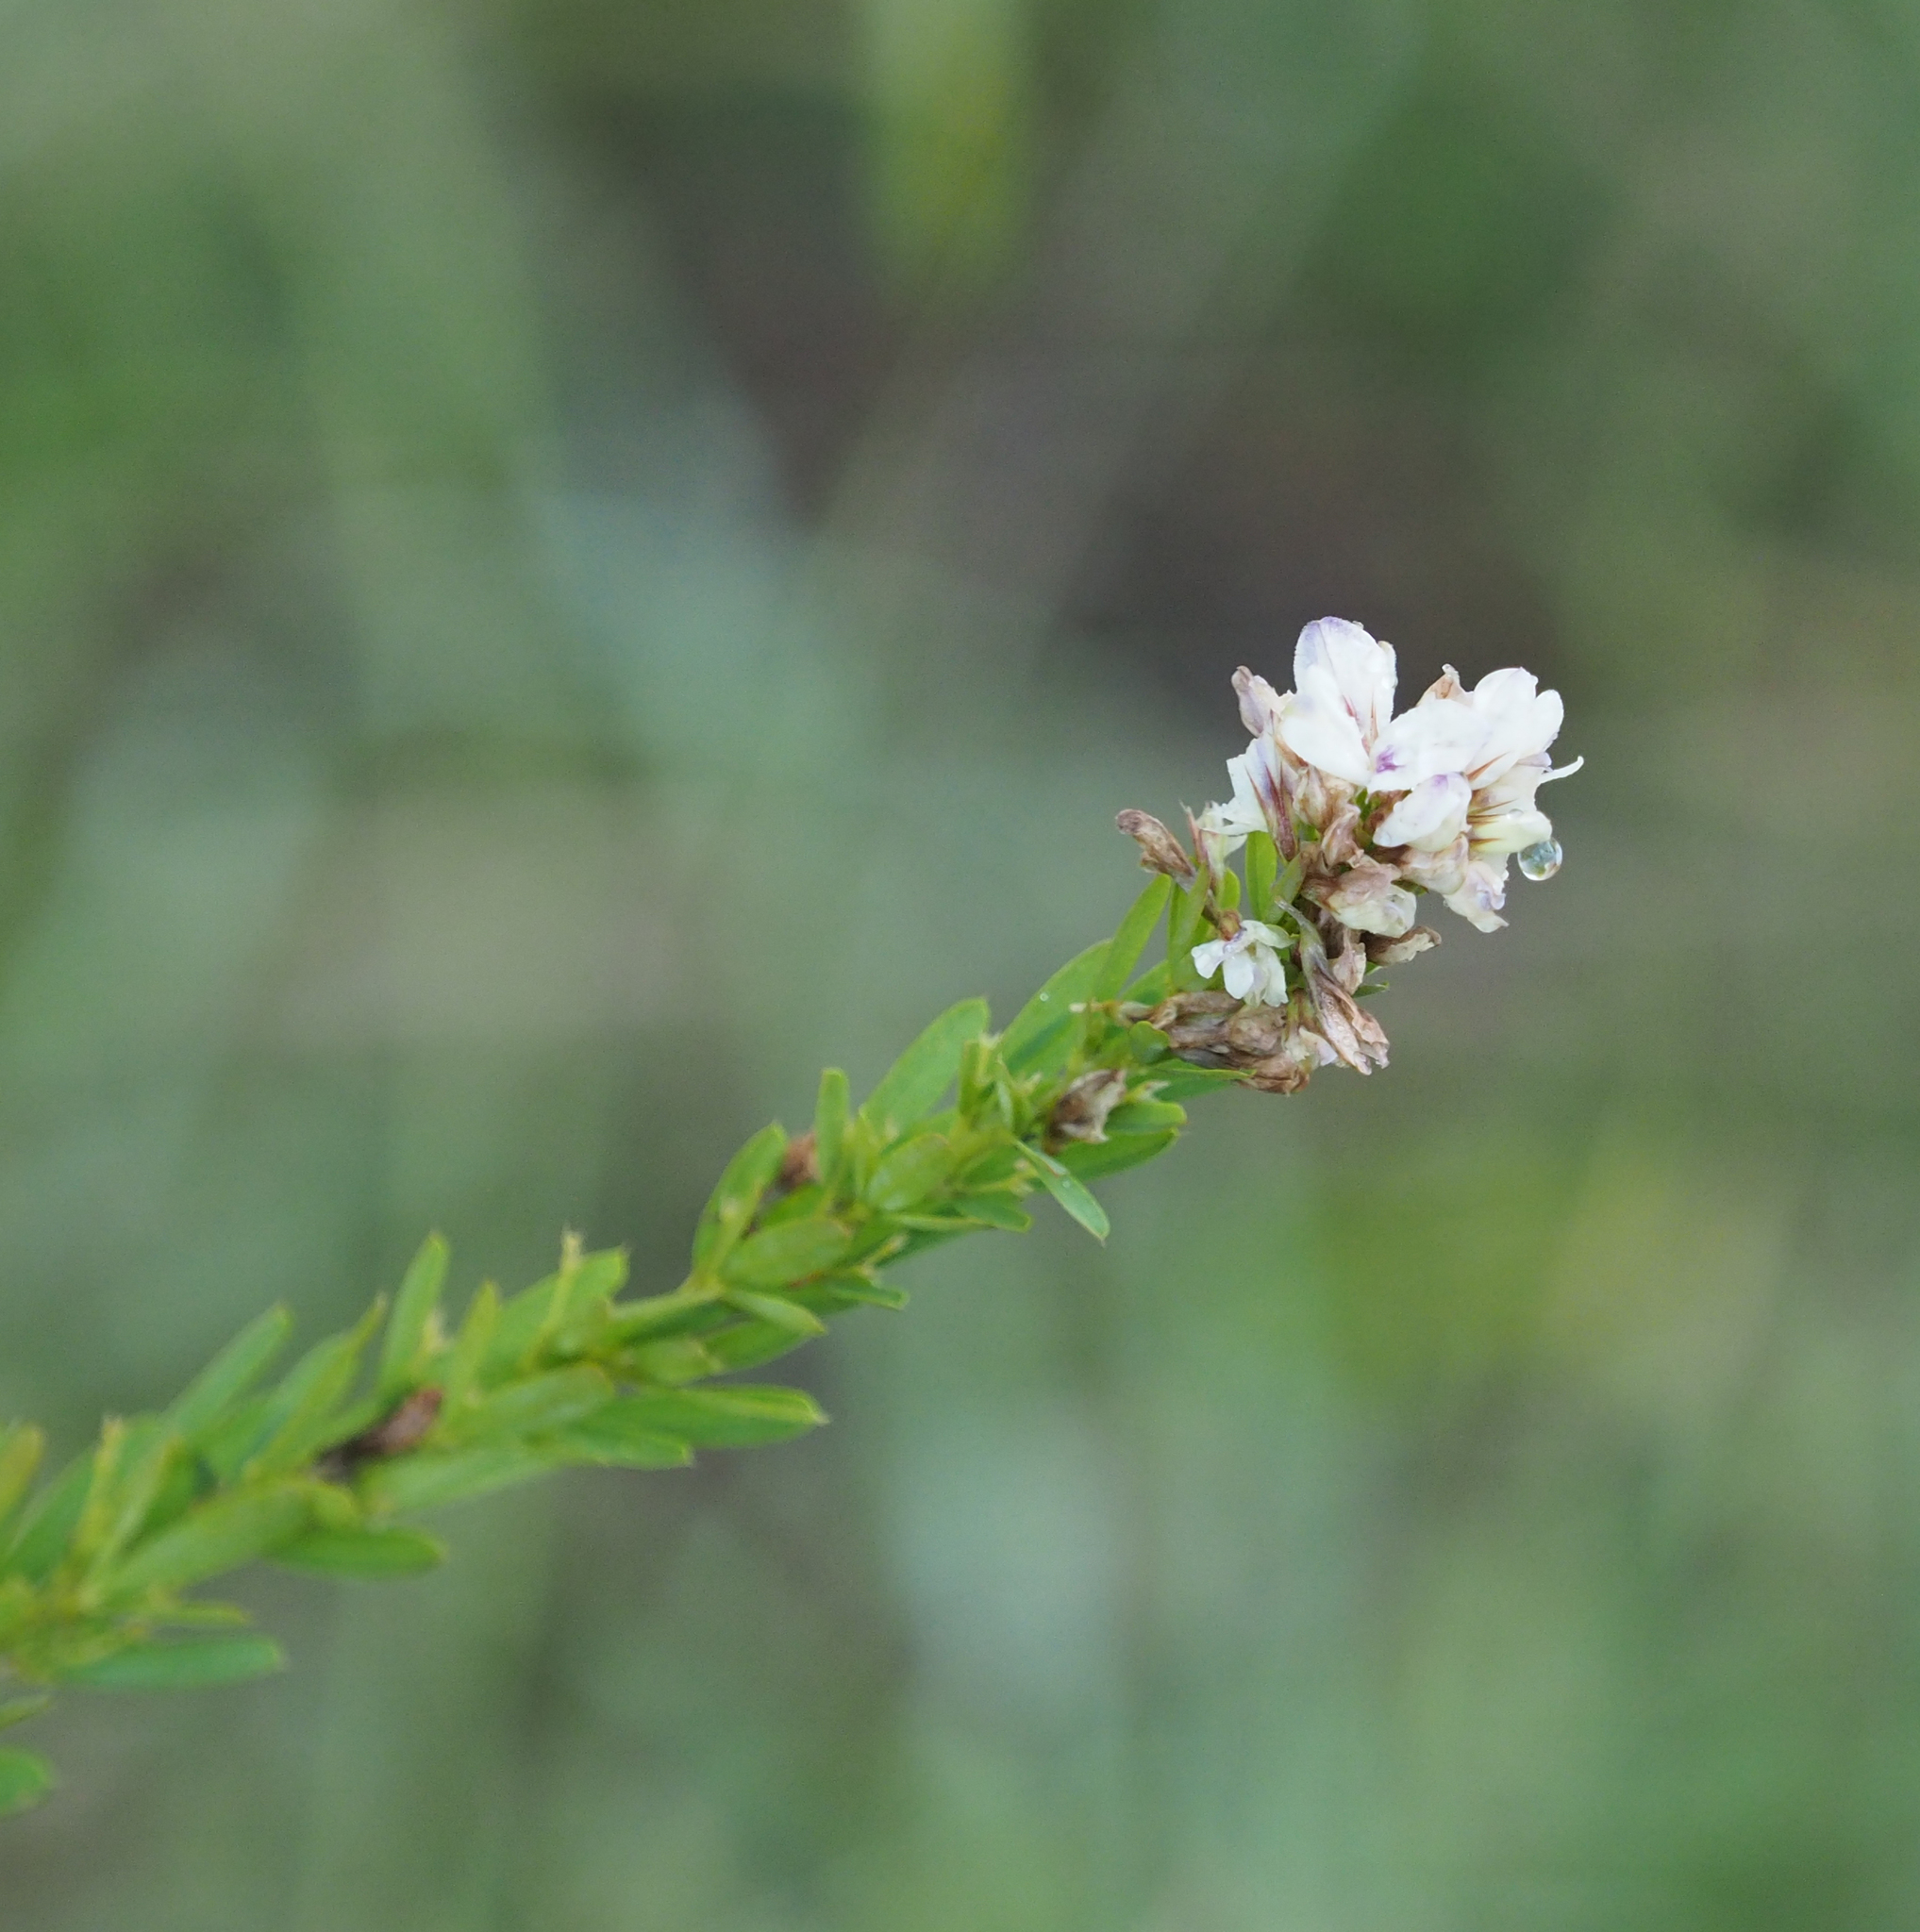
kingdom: Plantae
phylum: Tracheophyta
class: Magnoliopsida
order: Fabales
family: Fabaceae
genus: Lespedeza
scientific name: Lespedeza cuneata
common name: Chinese bush-clover
